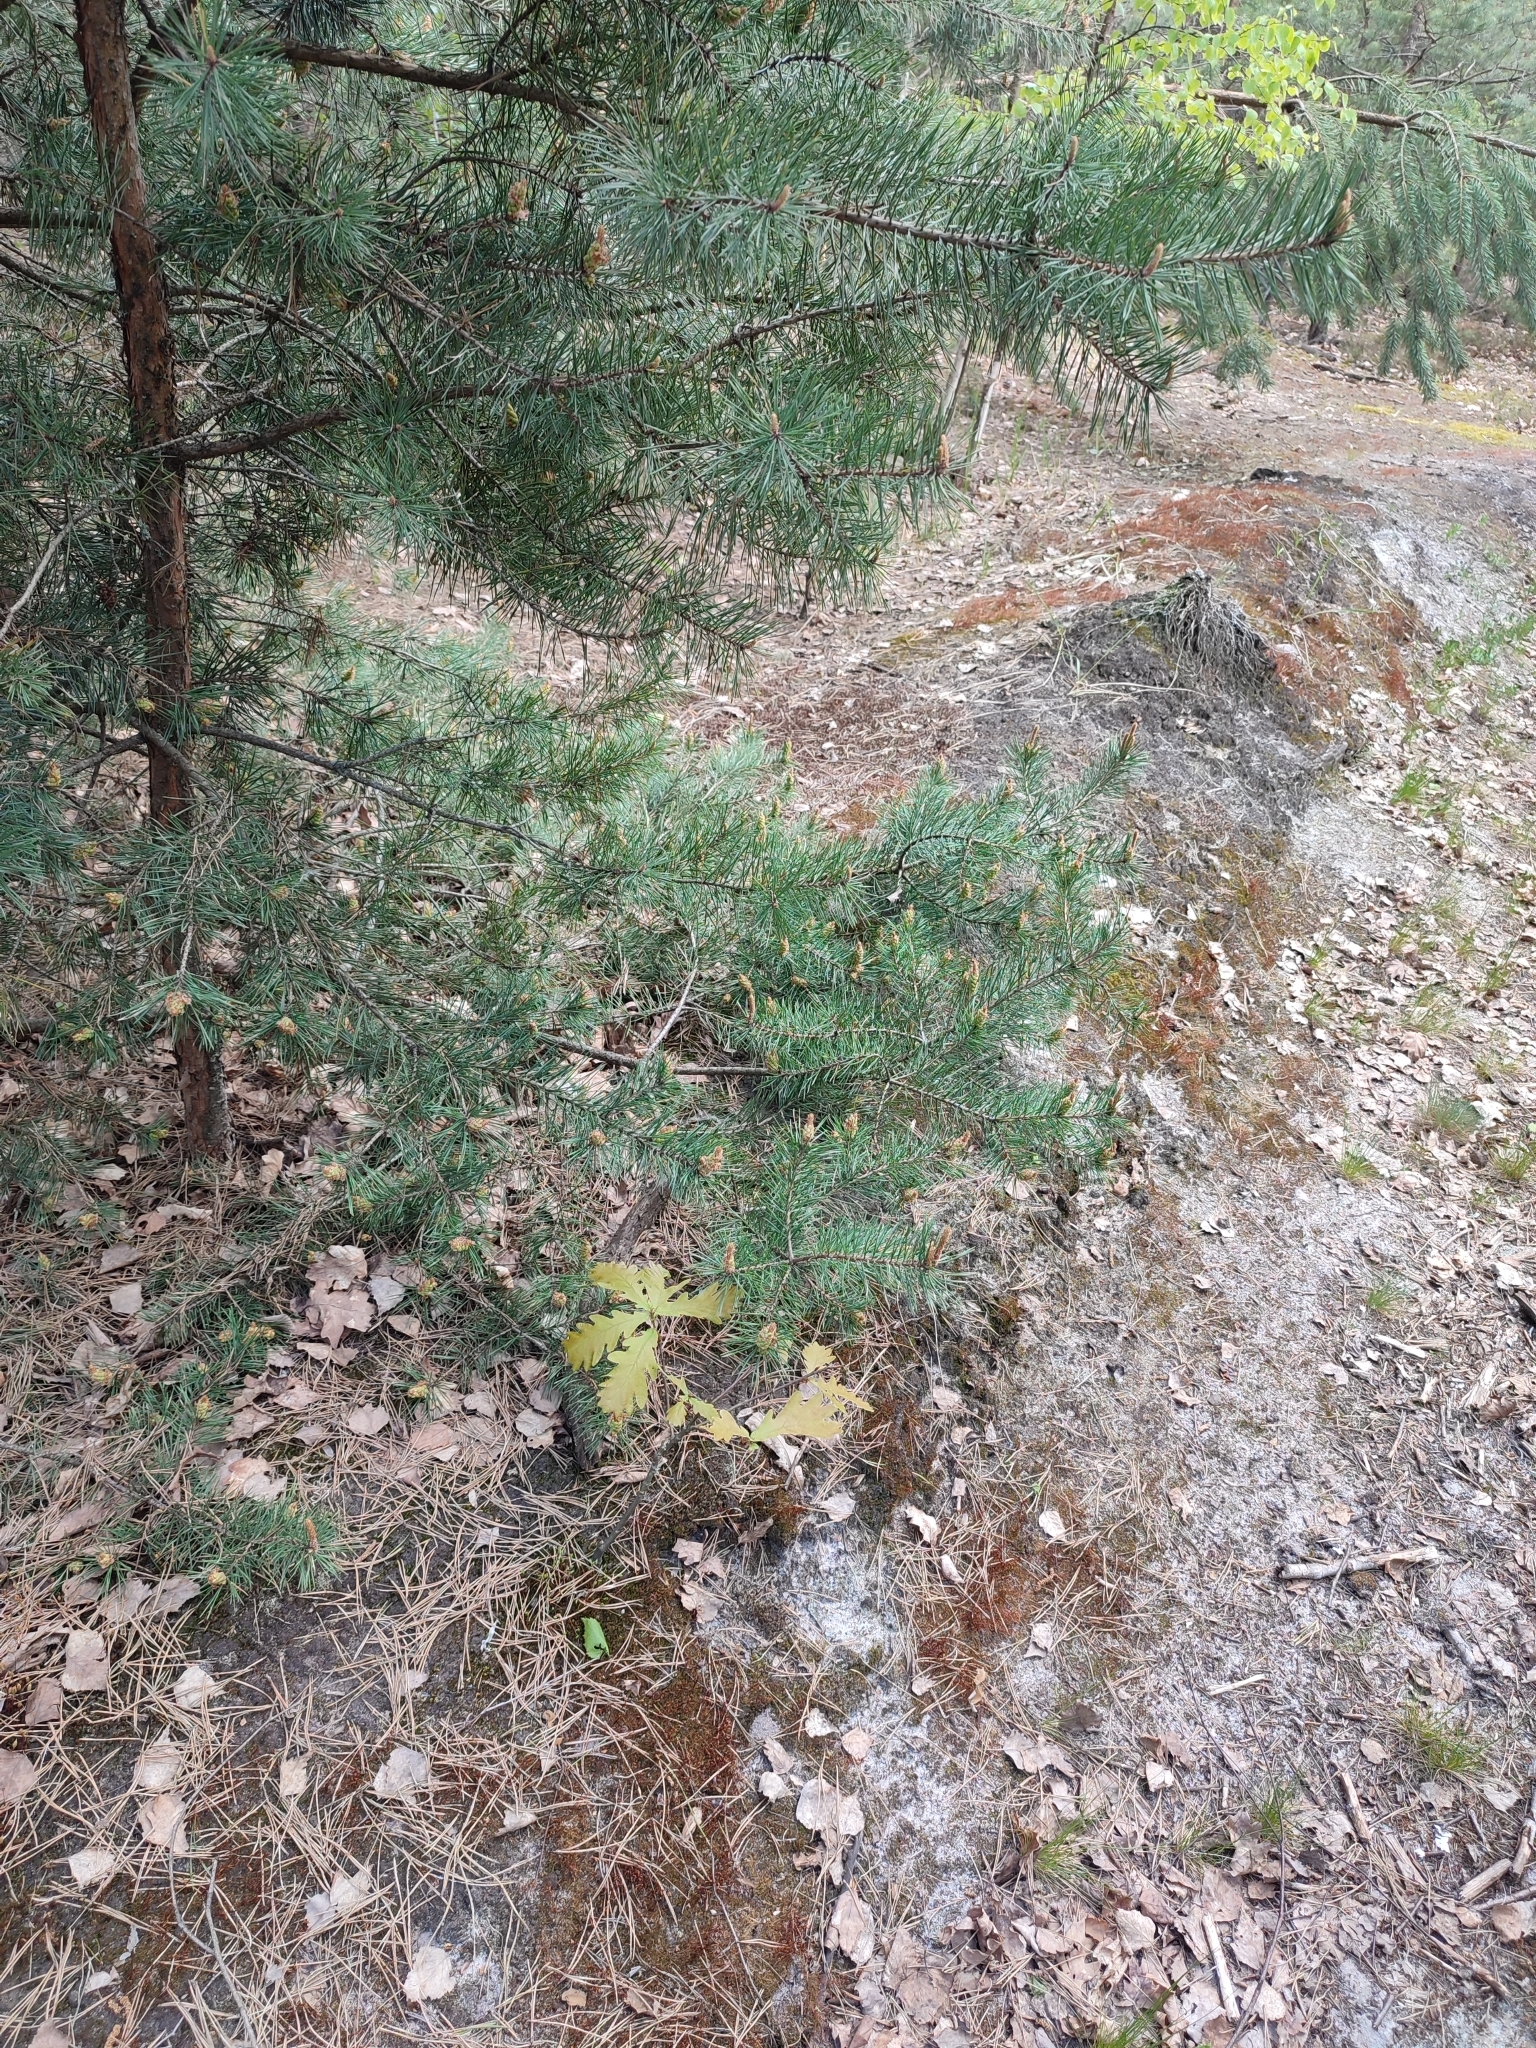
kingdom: Plantae
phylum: Tracheophyta
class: Magnoliopsida
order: Fagales
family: Fagaceae
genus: Quercus
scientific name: Quercus robur
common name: Pedunculate oak
